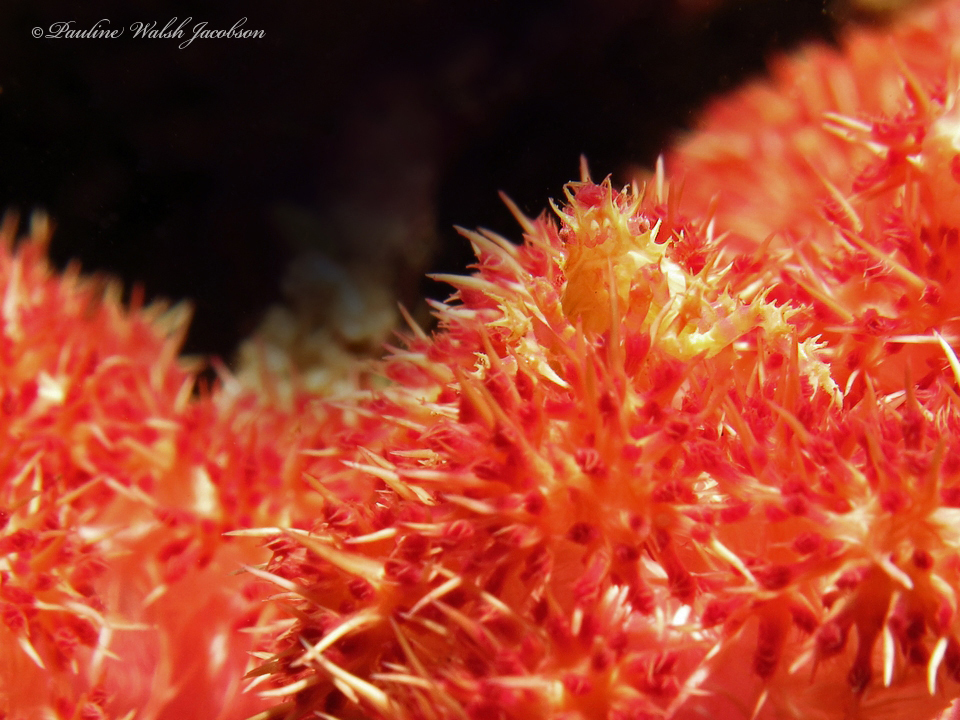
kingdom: Animalia
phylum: Arthropoda
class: Malacostraca
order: Decapoda
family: Epialtidae
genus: Hoplophrys
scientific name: Hoplophrys oatesii
